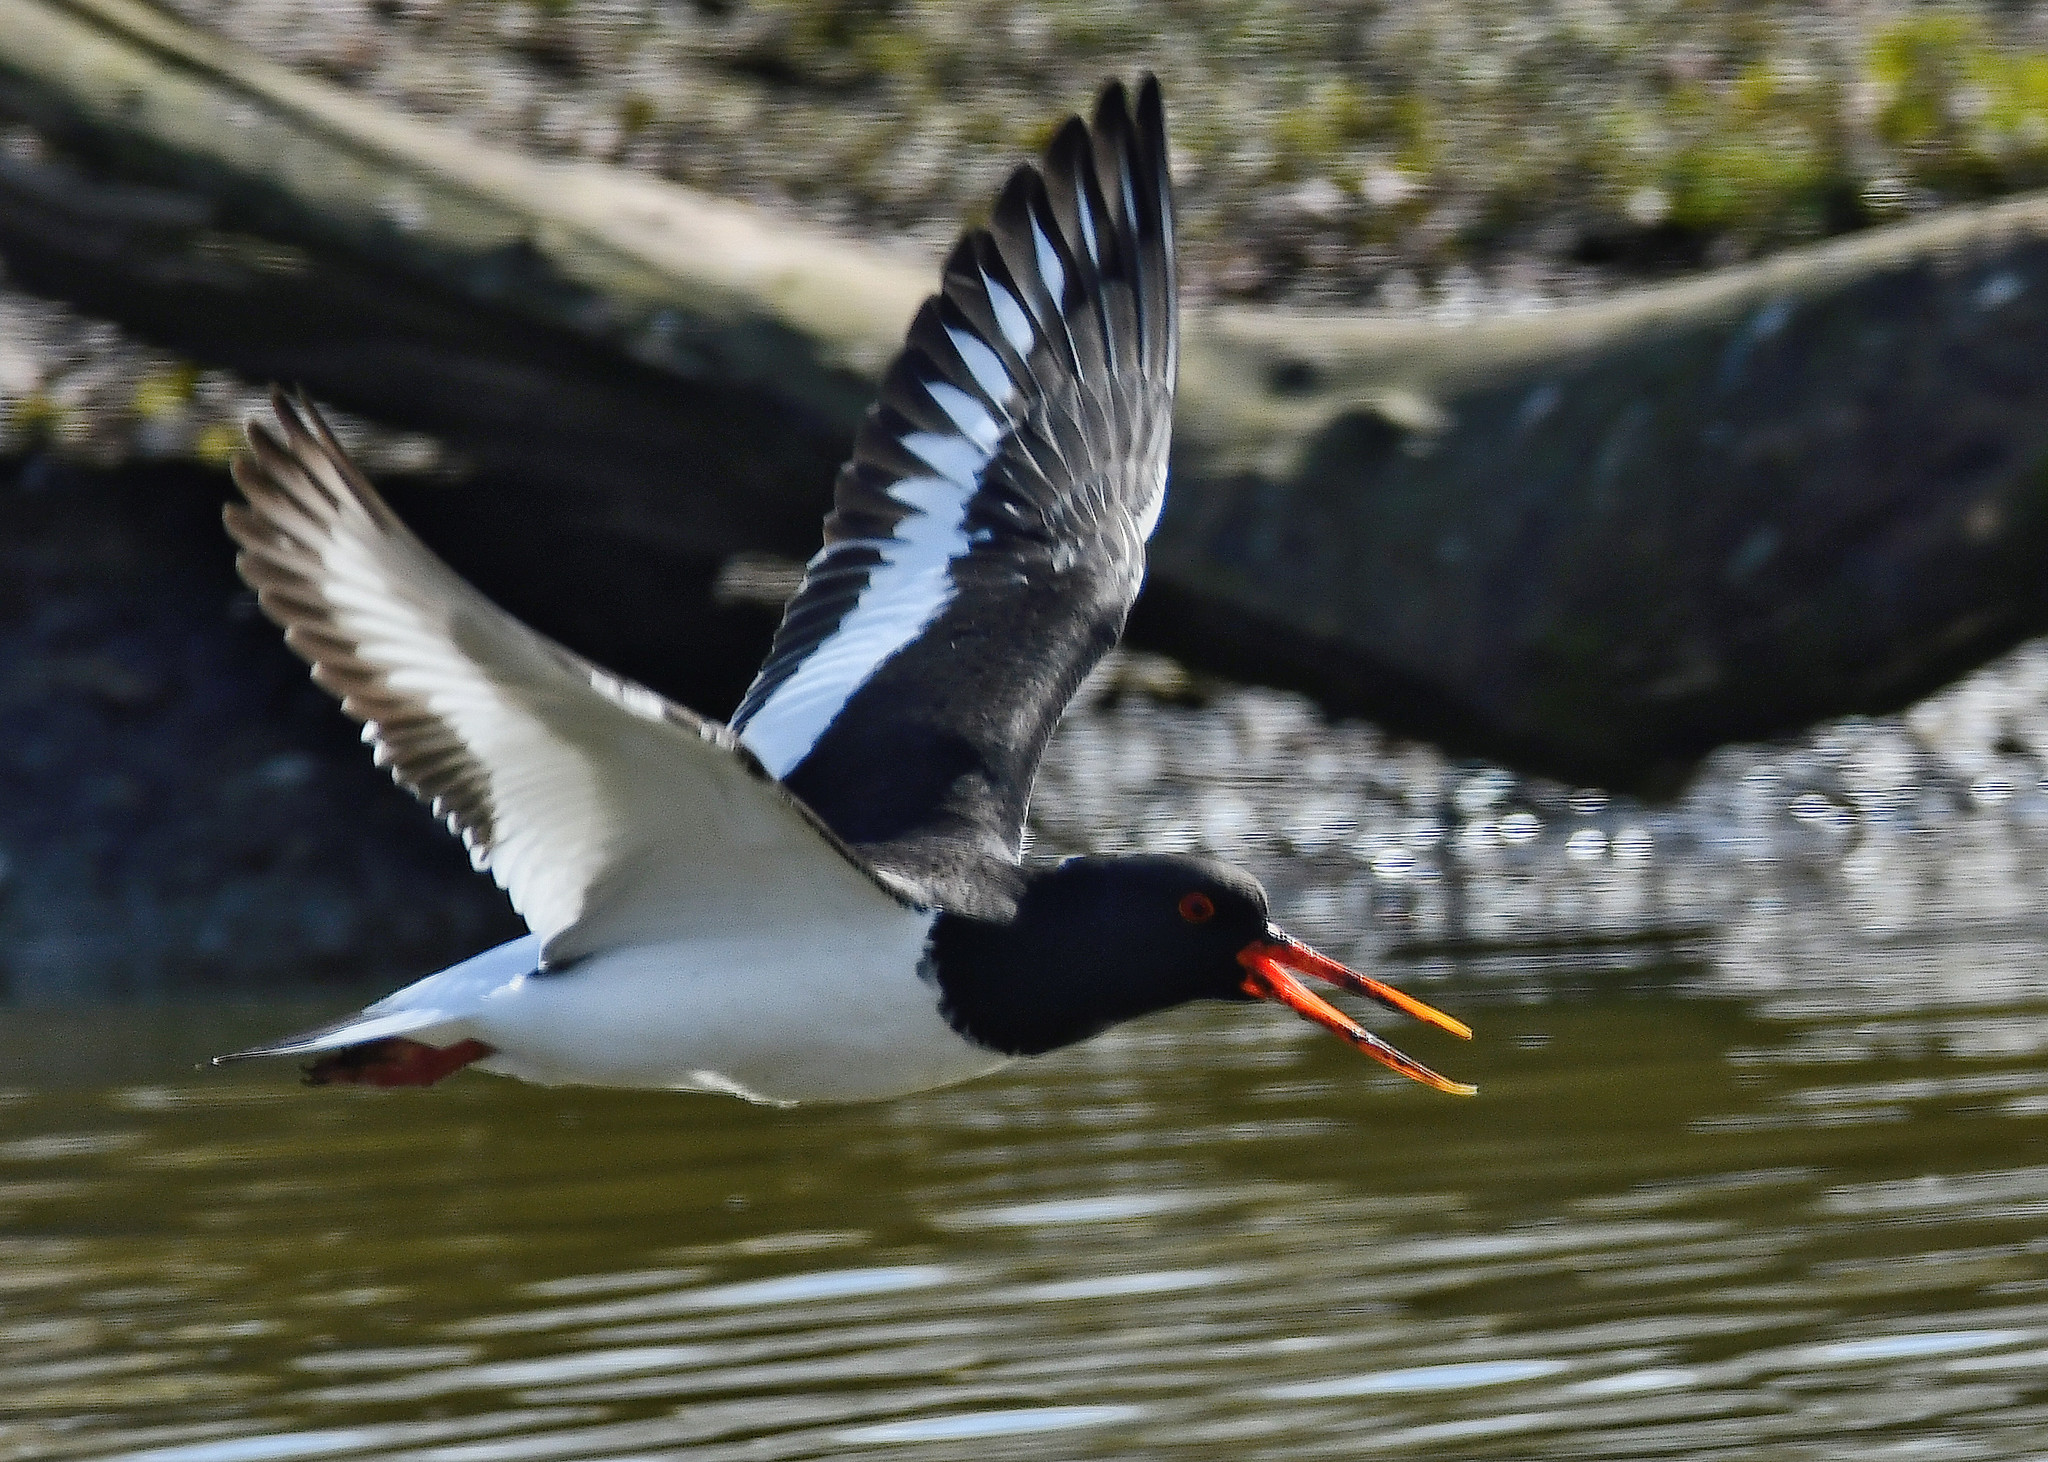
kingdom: Animalia
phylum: Chordata
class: Aves
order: Charadriiformes
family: Haematopodidae
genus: Haematopus
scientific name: Haematopus ostralegus
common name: Eurasian oystercatcher
